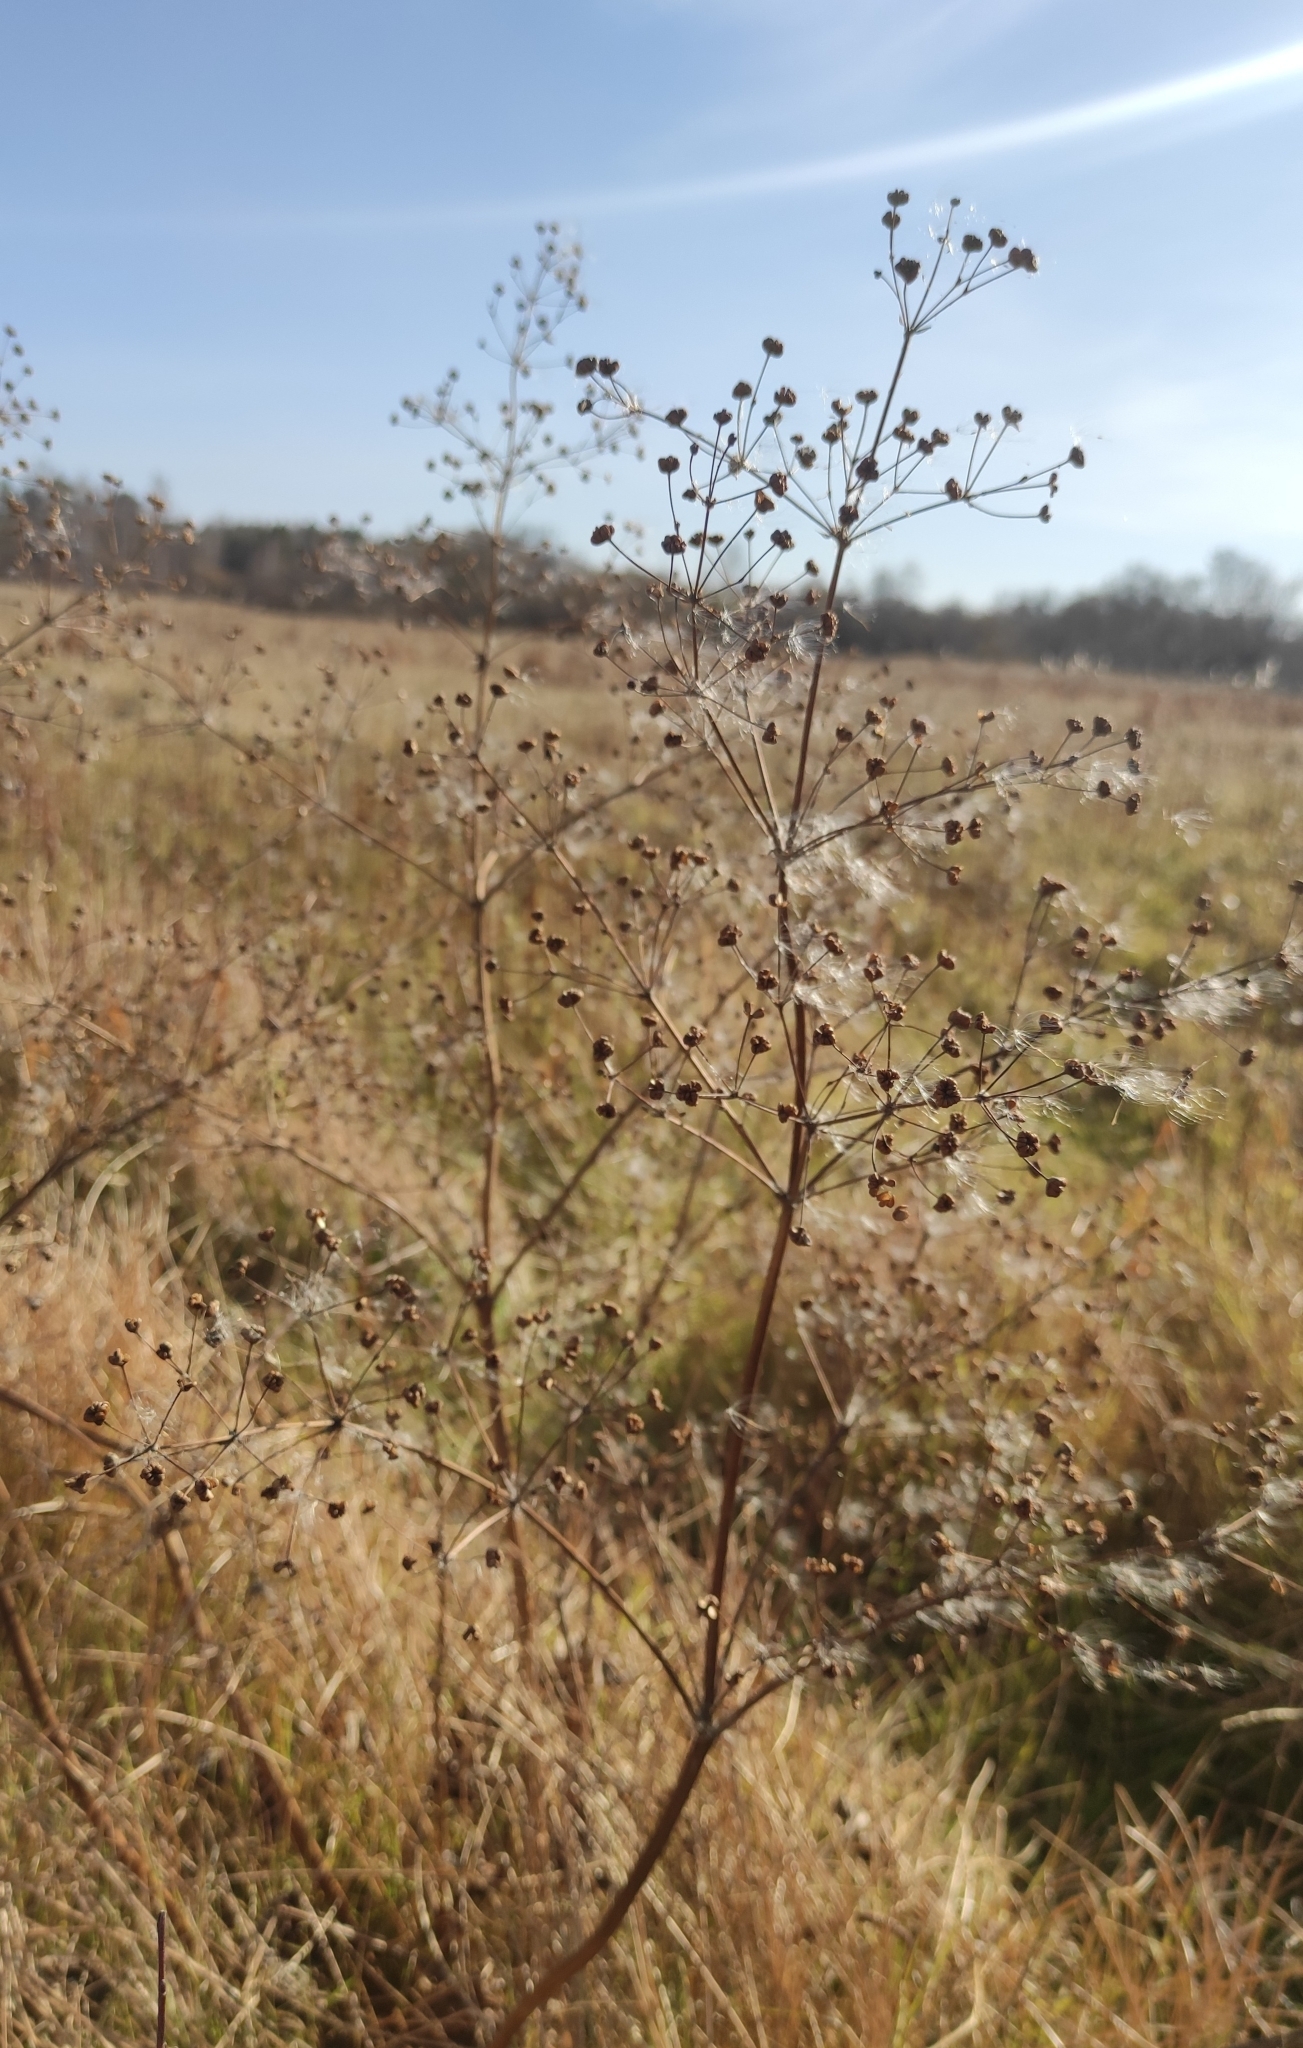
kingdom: Plantae
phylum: Tracheophyta
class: Liliopsida
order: Alismatales
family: Alismataceae
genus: Alisma
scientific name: Alisma plantago-aquatica
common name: Water-plantain
